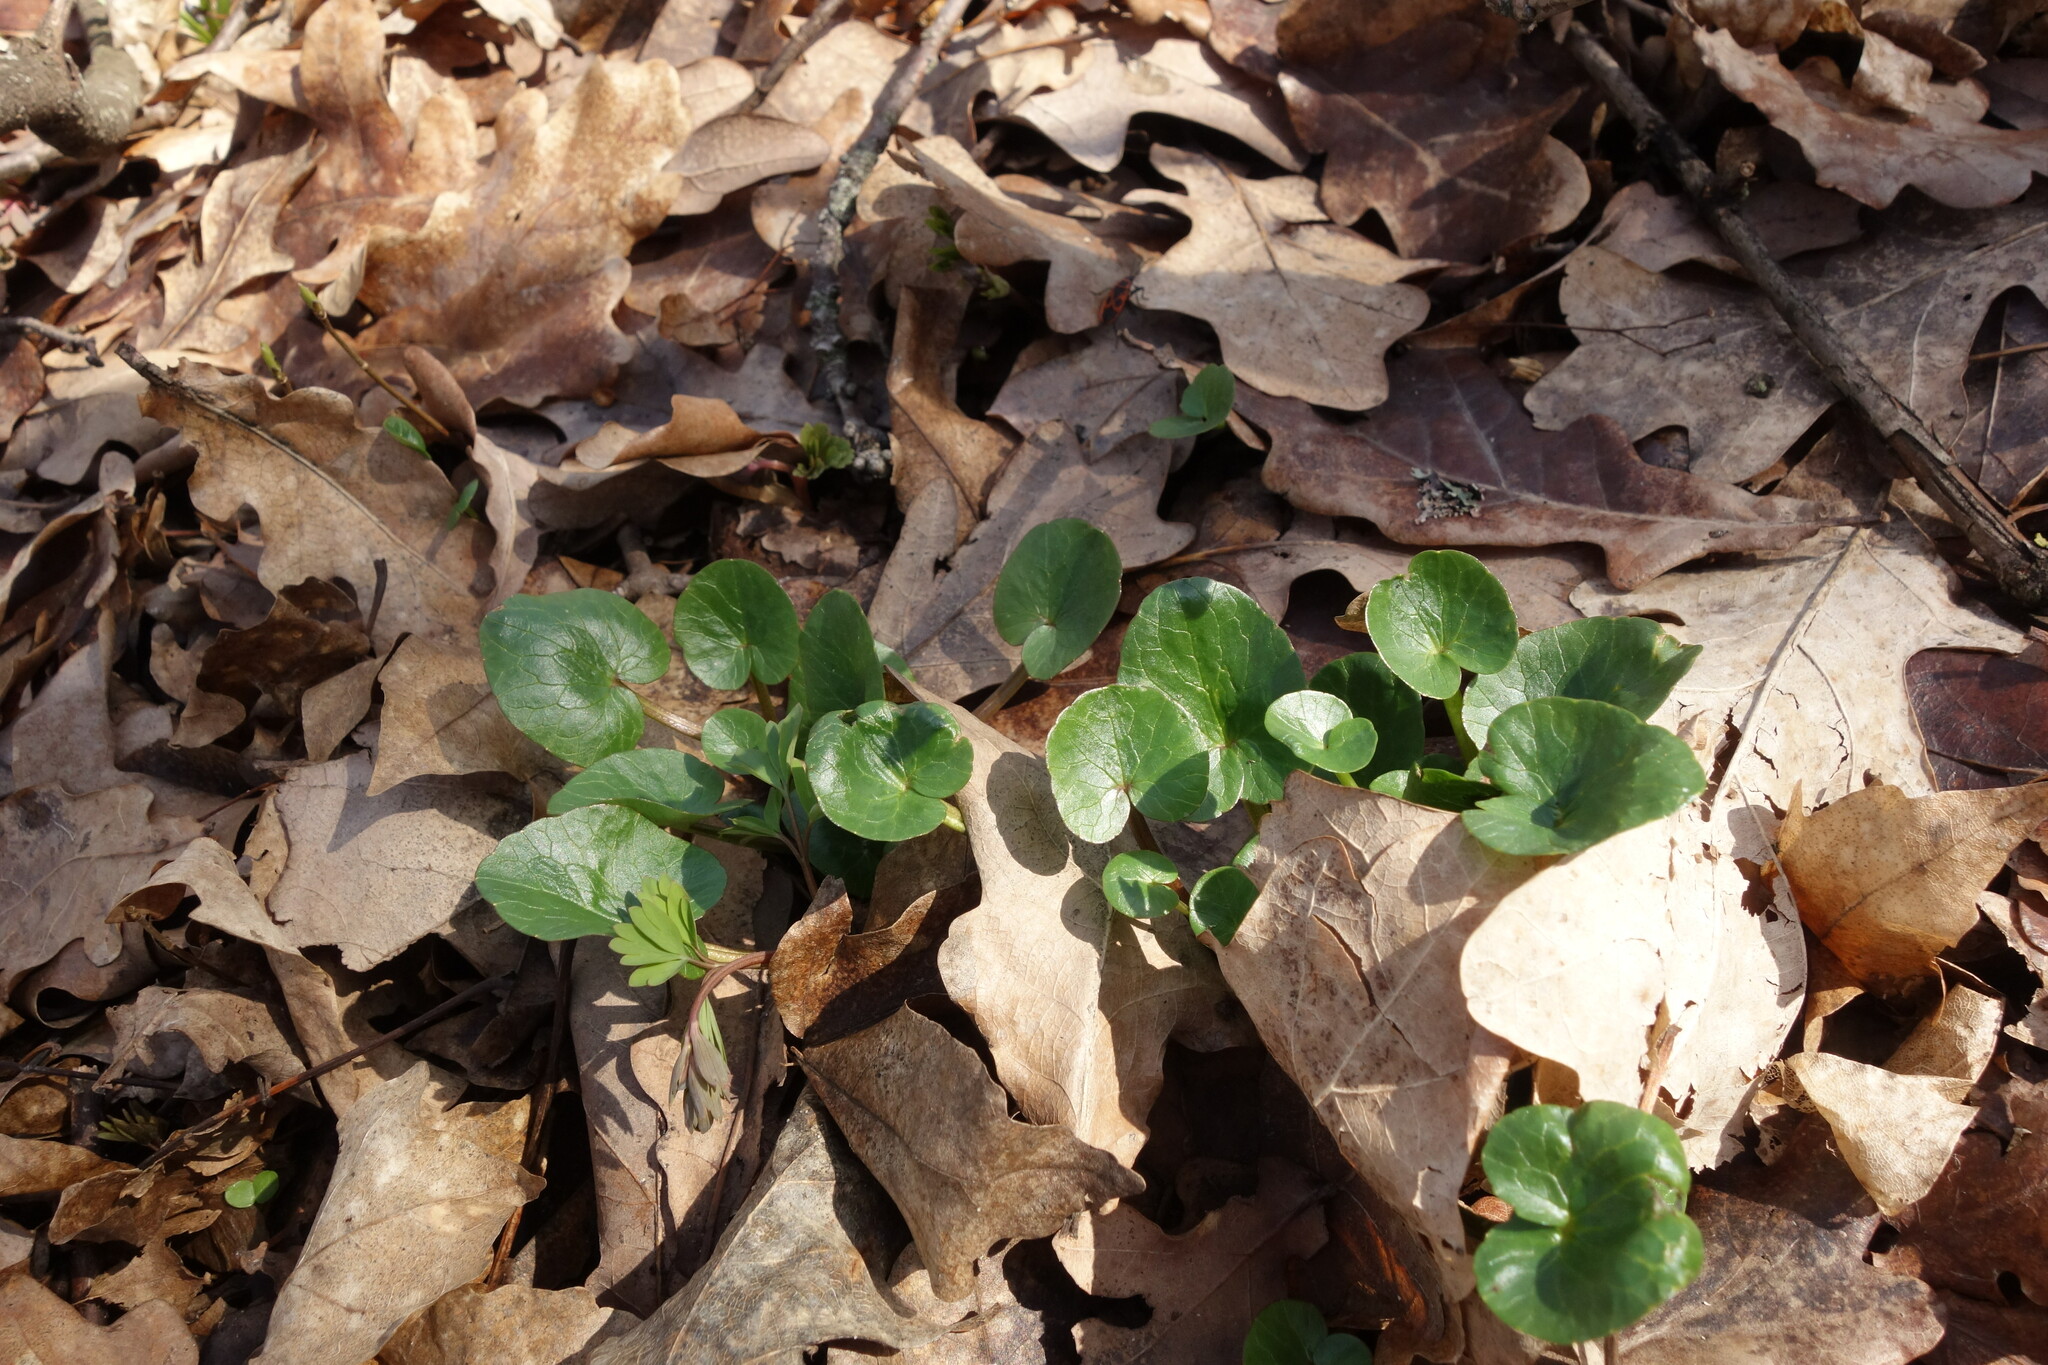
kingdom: Plantae
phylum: Tracheophyta
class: Magnoliopsida
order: Ranunculales
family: Ranunculaceae
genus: Ficaria
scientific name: Ficaria verna
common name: Lesser celandine
